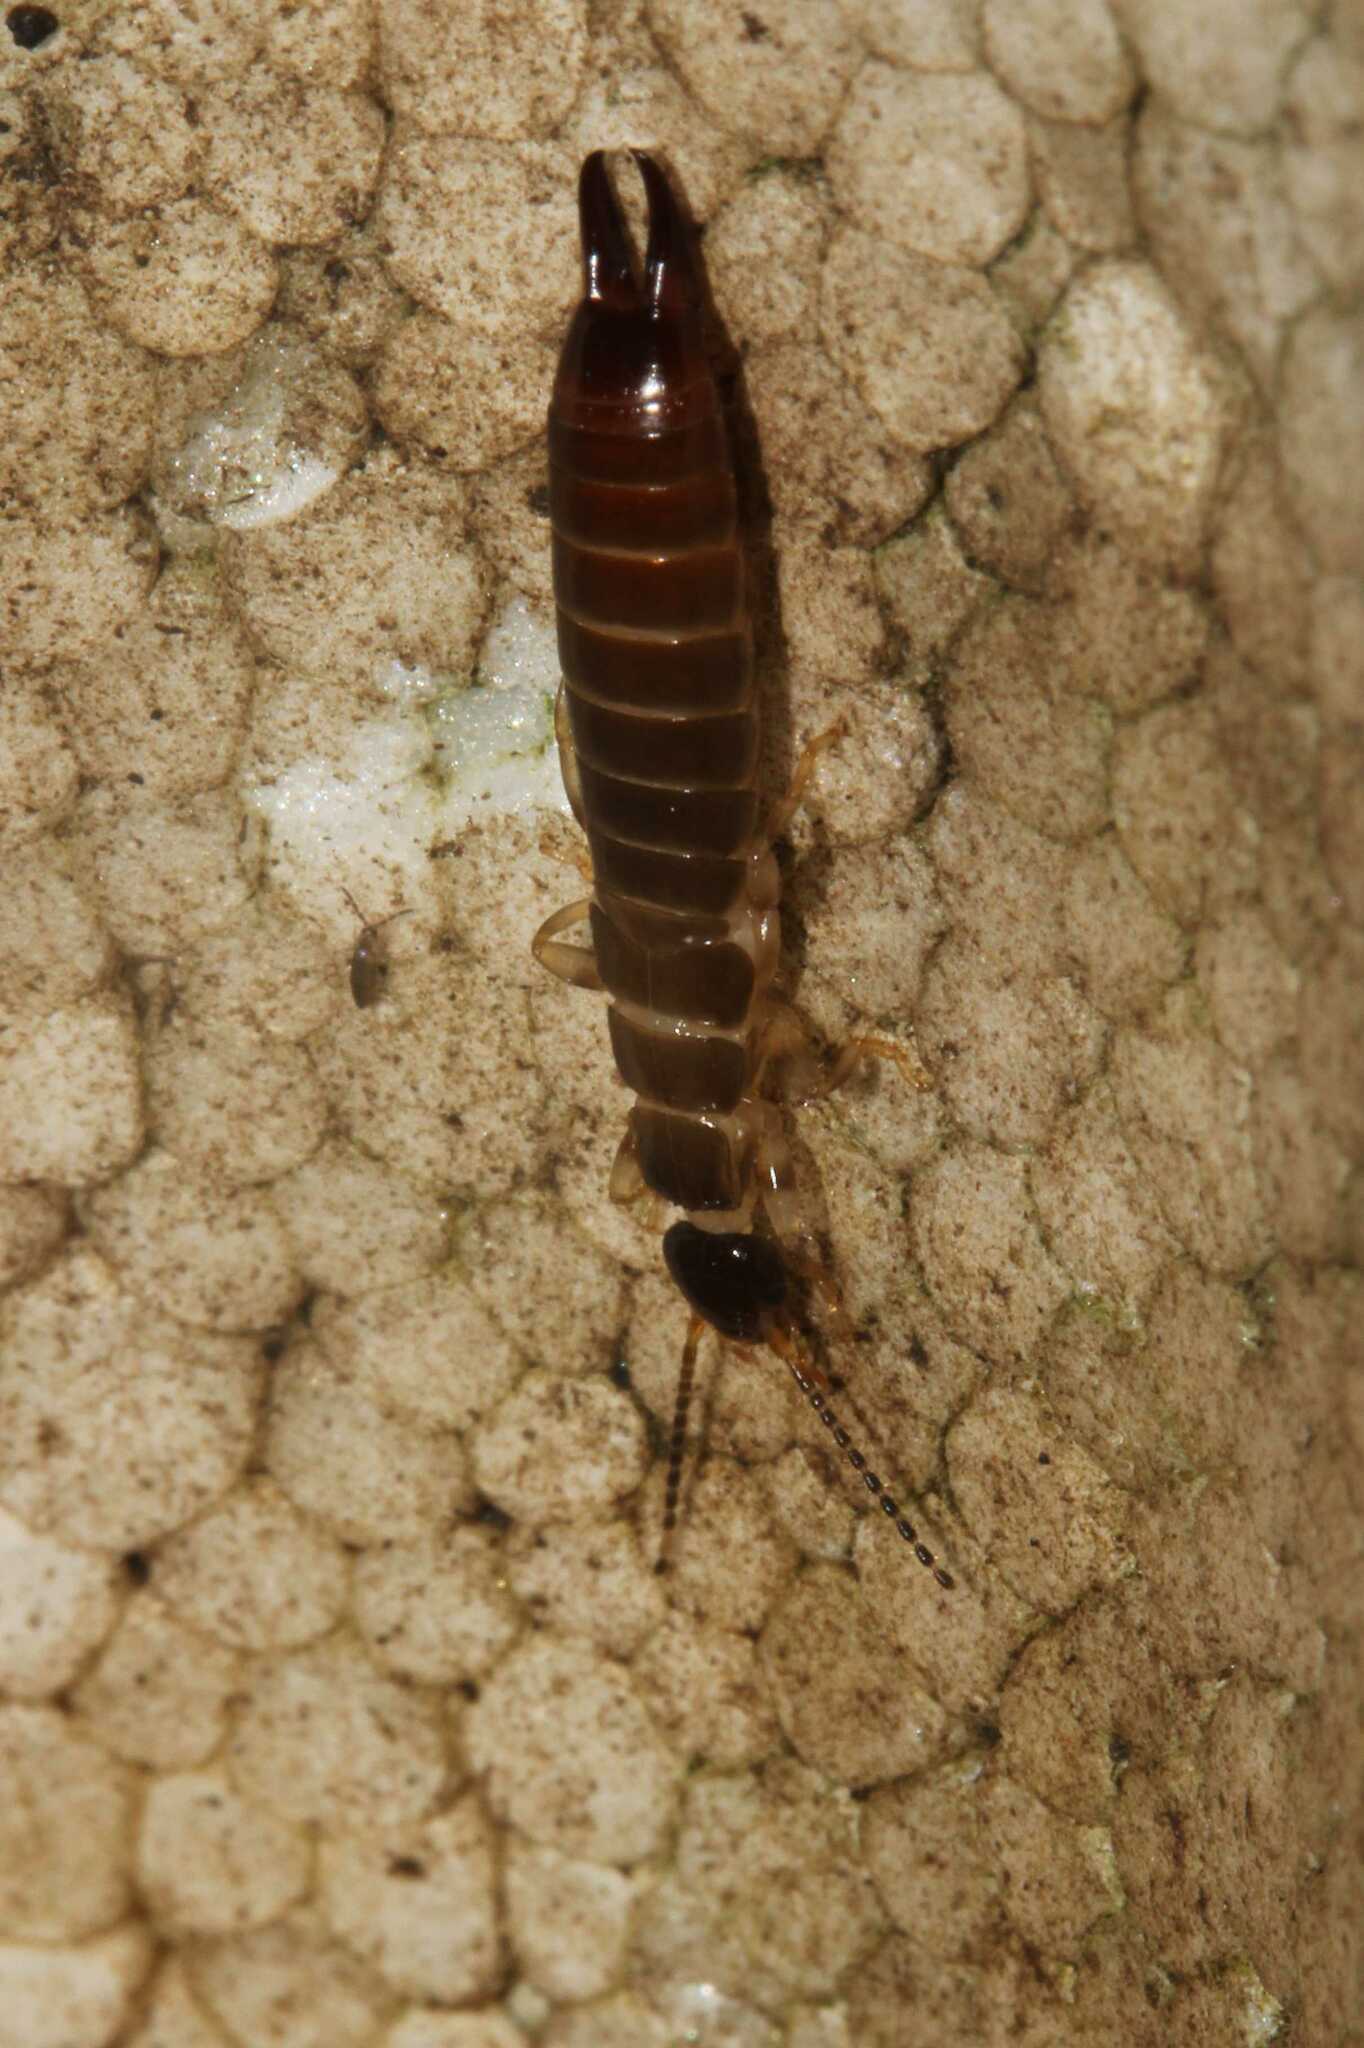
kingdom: Animalia
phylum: Arthropoda
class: Insecta
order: Dermaptera
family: Anisolabididae
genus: Euborellia
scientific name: Euborellia annulipes
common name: Ringlegged earwig
